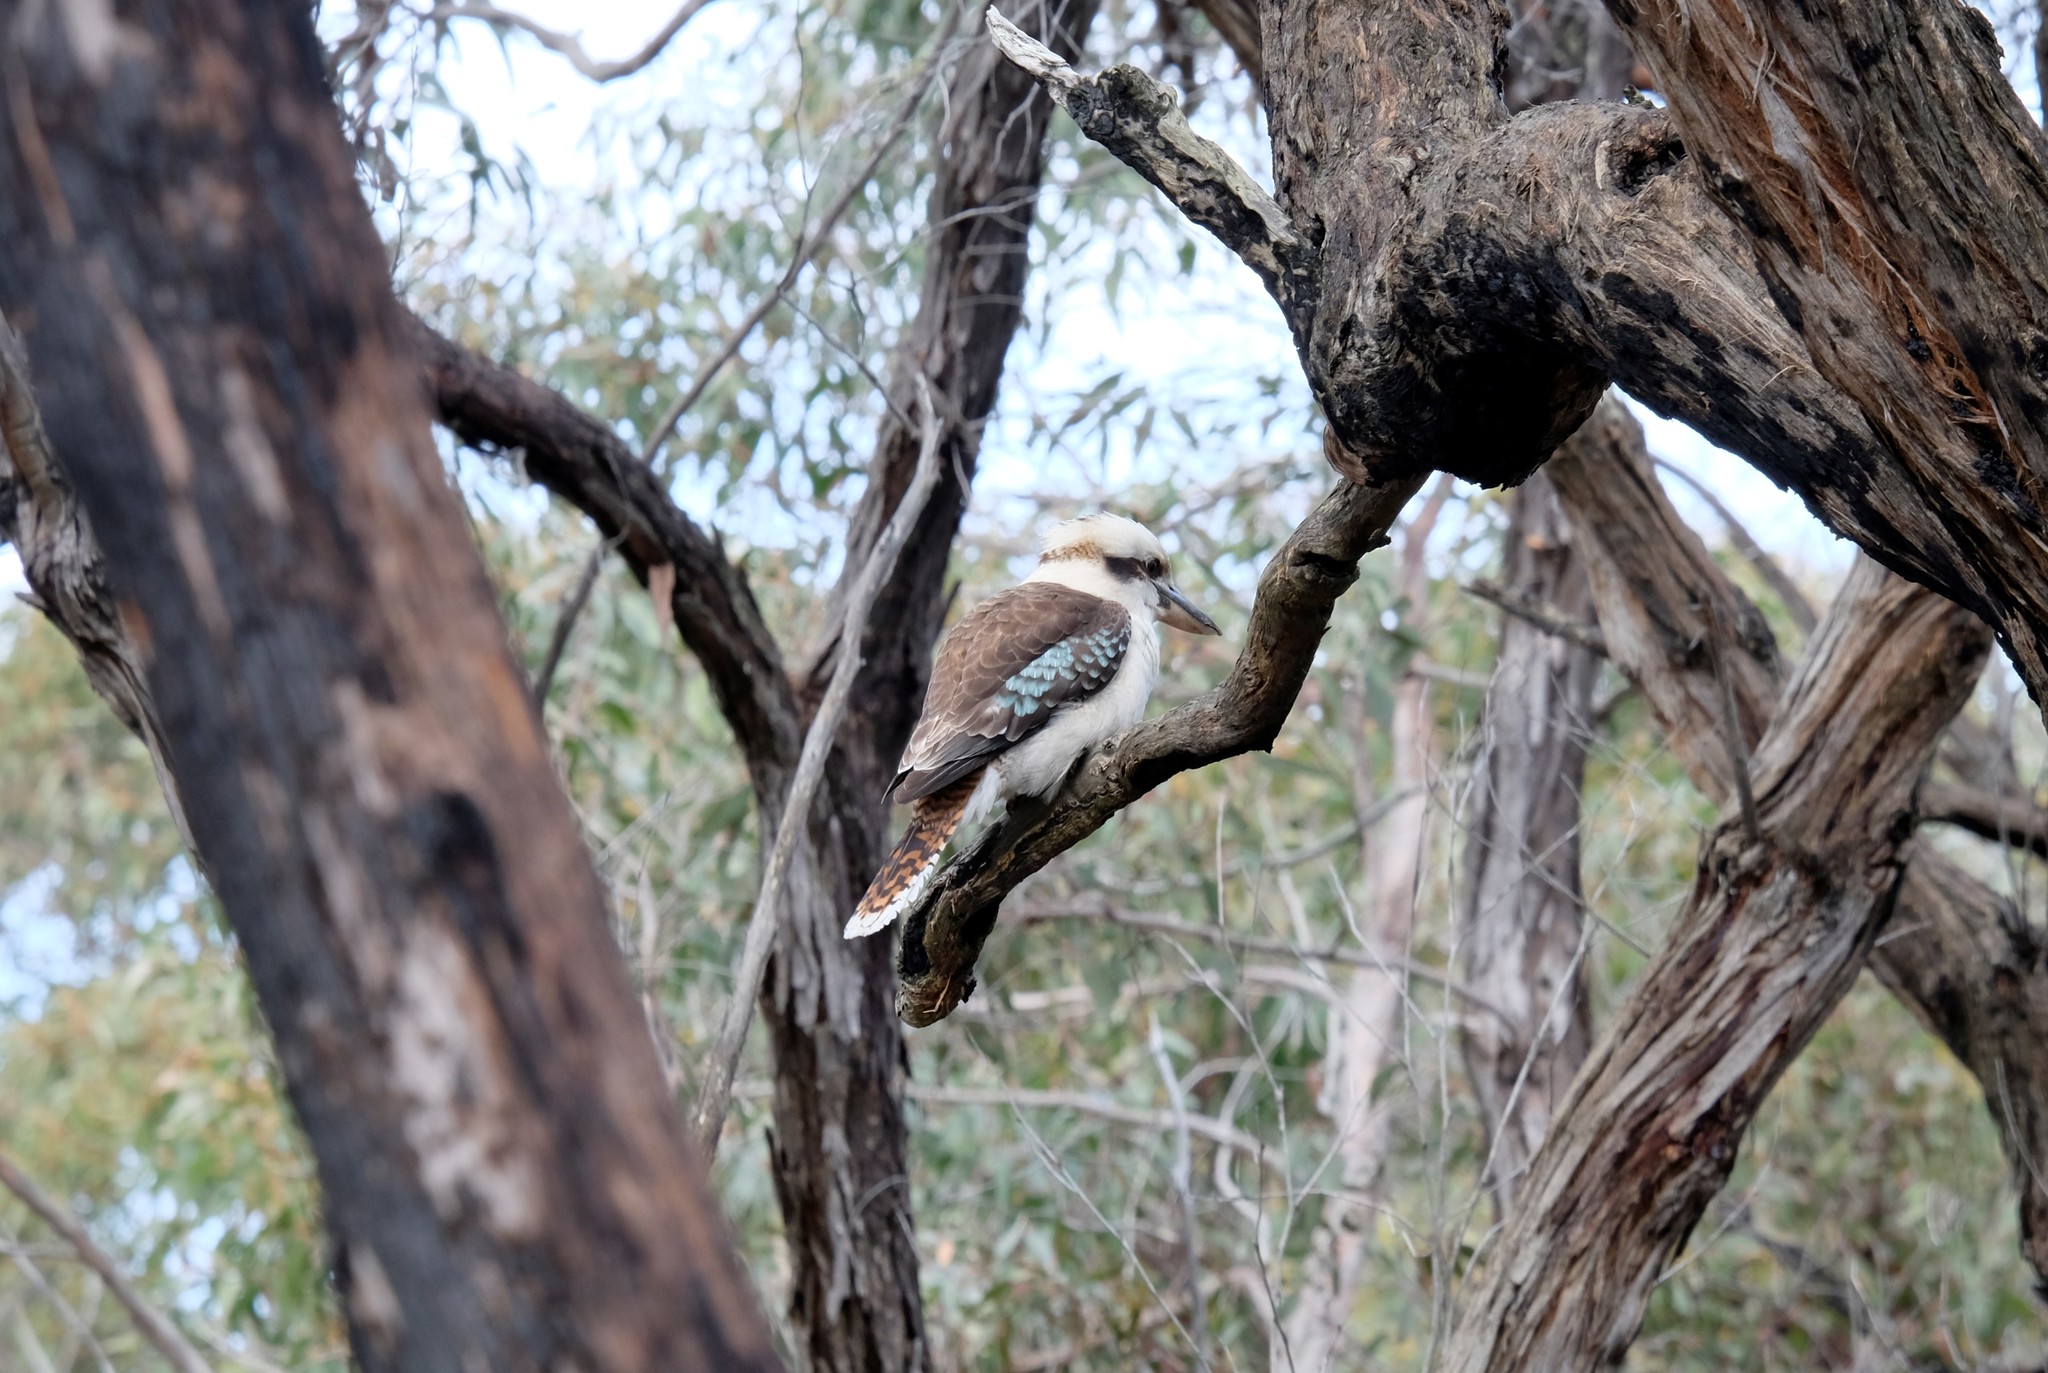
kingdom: Animalia
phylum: Chordata
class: Aves
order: Coraciiformes
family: Alcedinidae
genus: Dacelo
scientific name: Dacelo novaeguineae
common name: Laughing kookaburra
